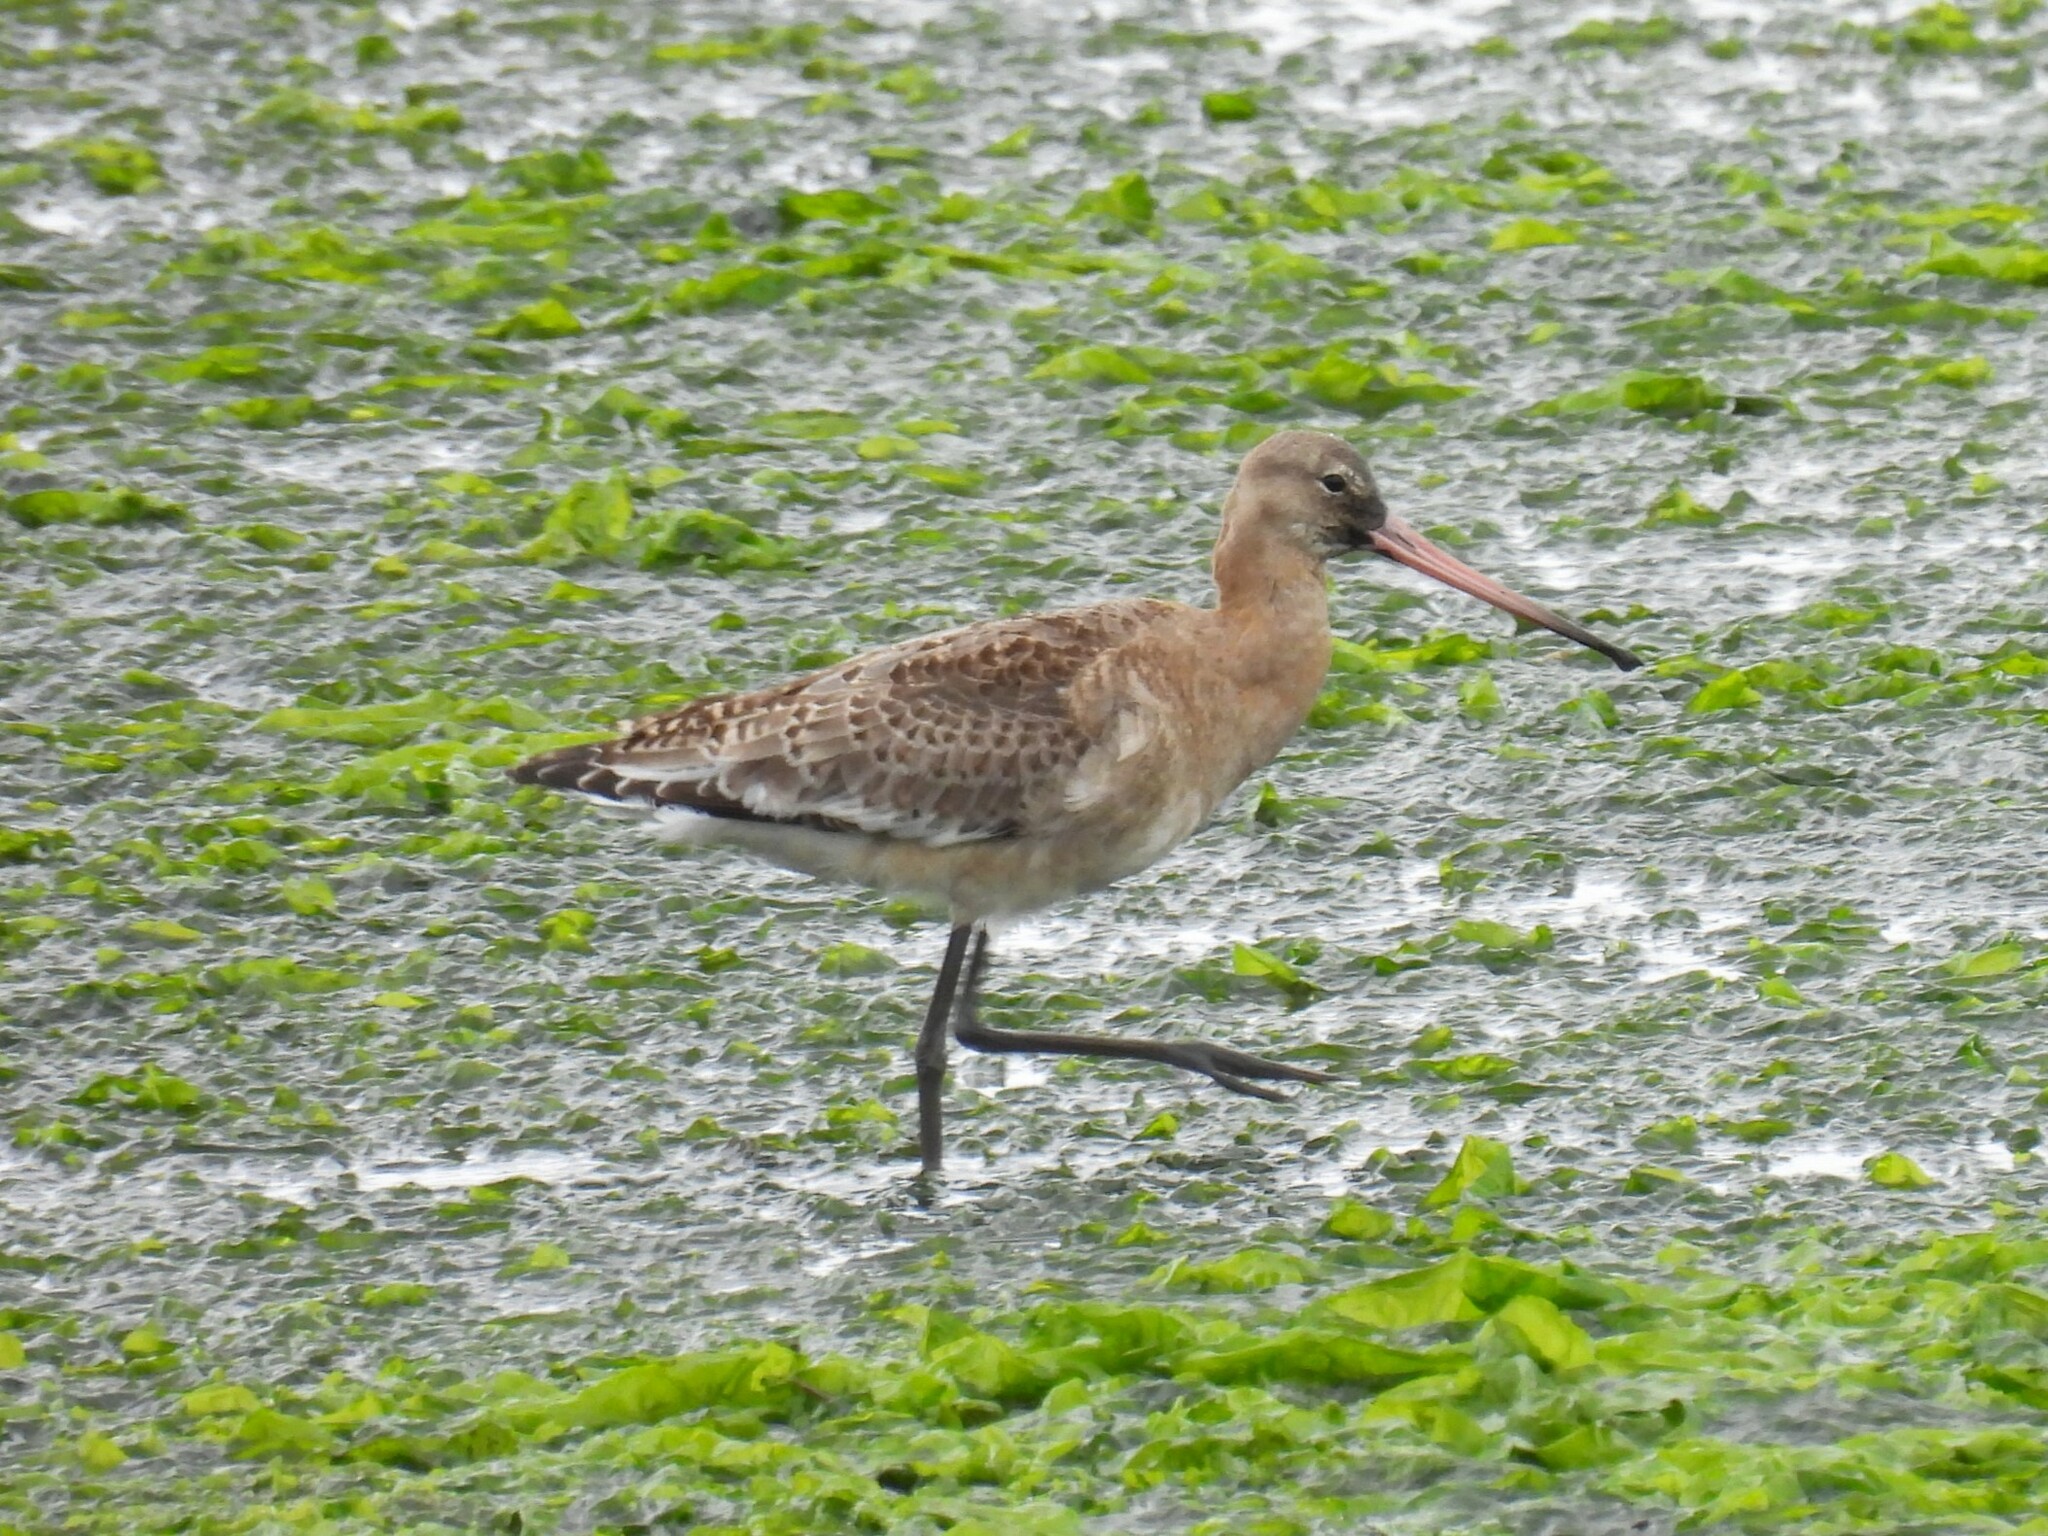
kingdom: Animalia
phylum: Chordata
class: Aves
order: Charadriiformes
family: Scolopacidae
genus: Limosa
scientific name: Limosa limosa
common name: Black-tailed godwit
